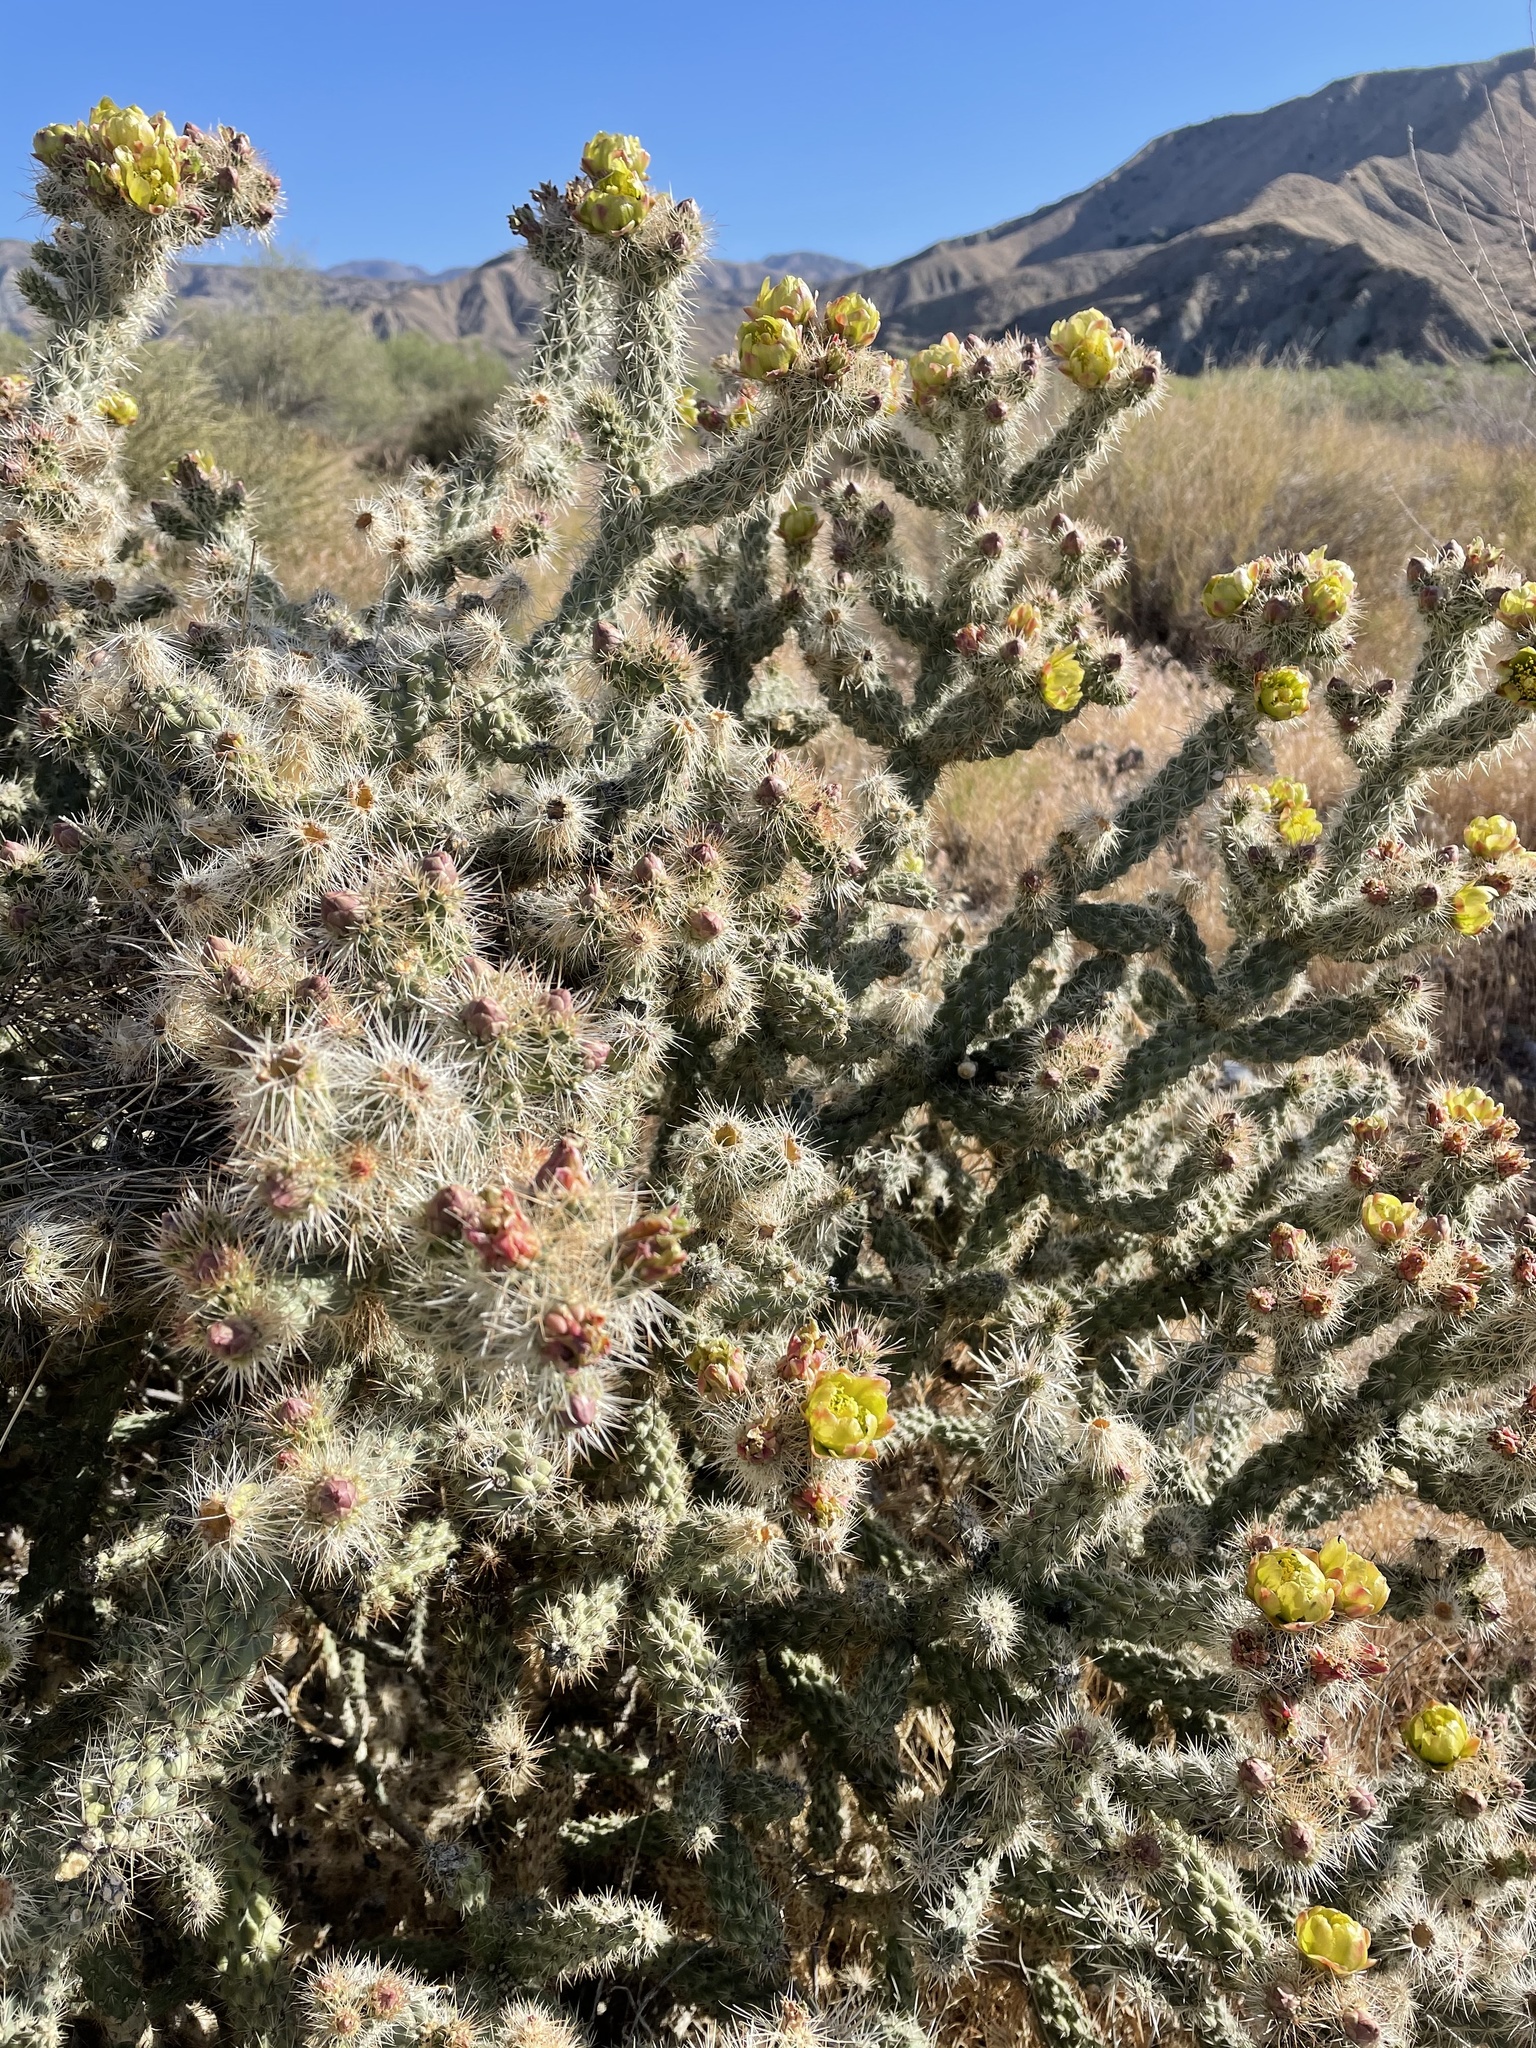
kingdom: Plantae
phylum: Tracheophyta
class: Magnoliopsida
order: Caryophyllales
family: Cactaceae
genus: Cylindropuntia
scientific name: Cylindropuntia echinocarpa
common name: Ground cholla
